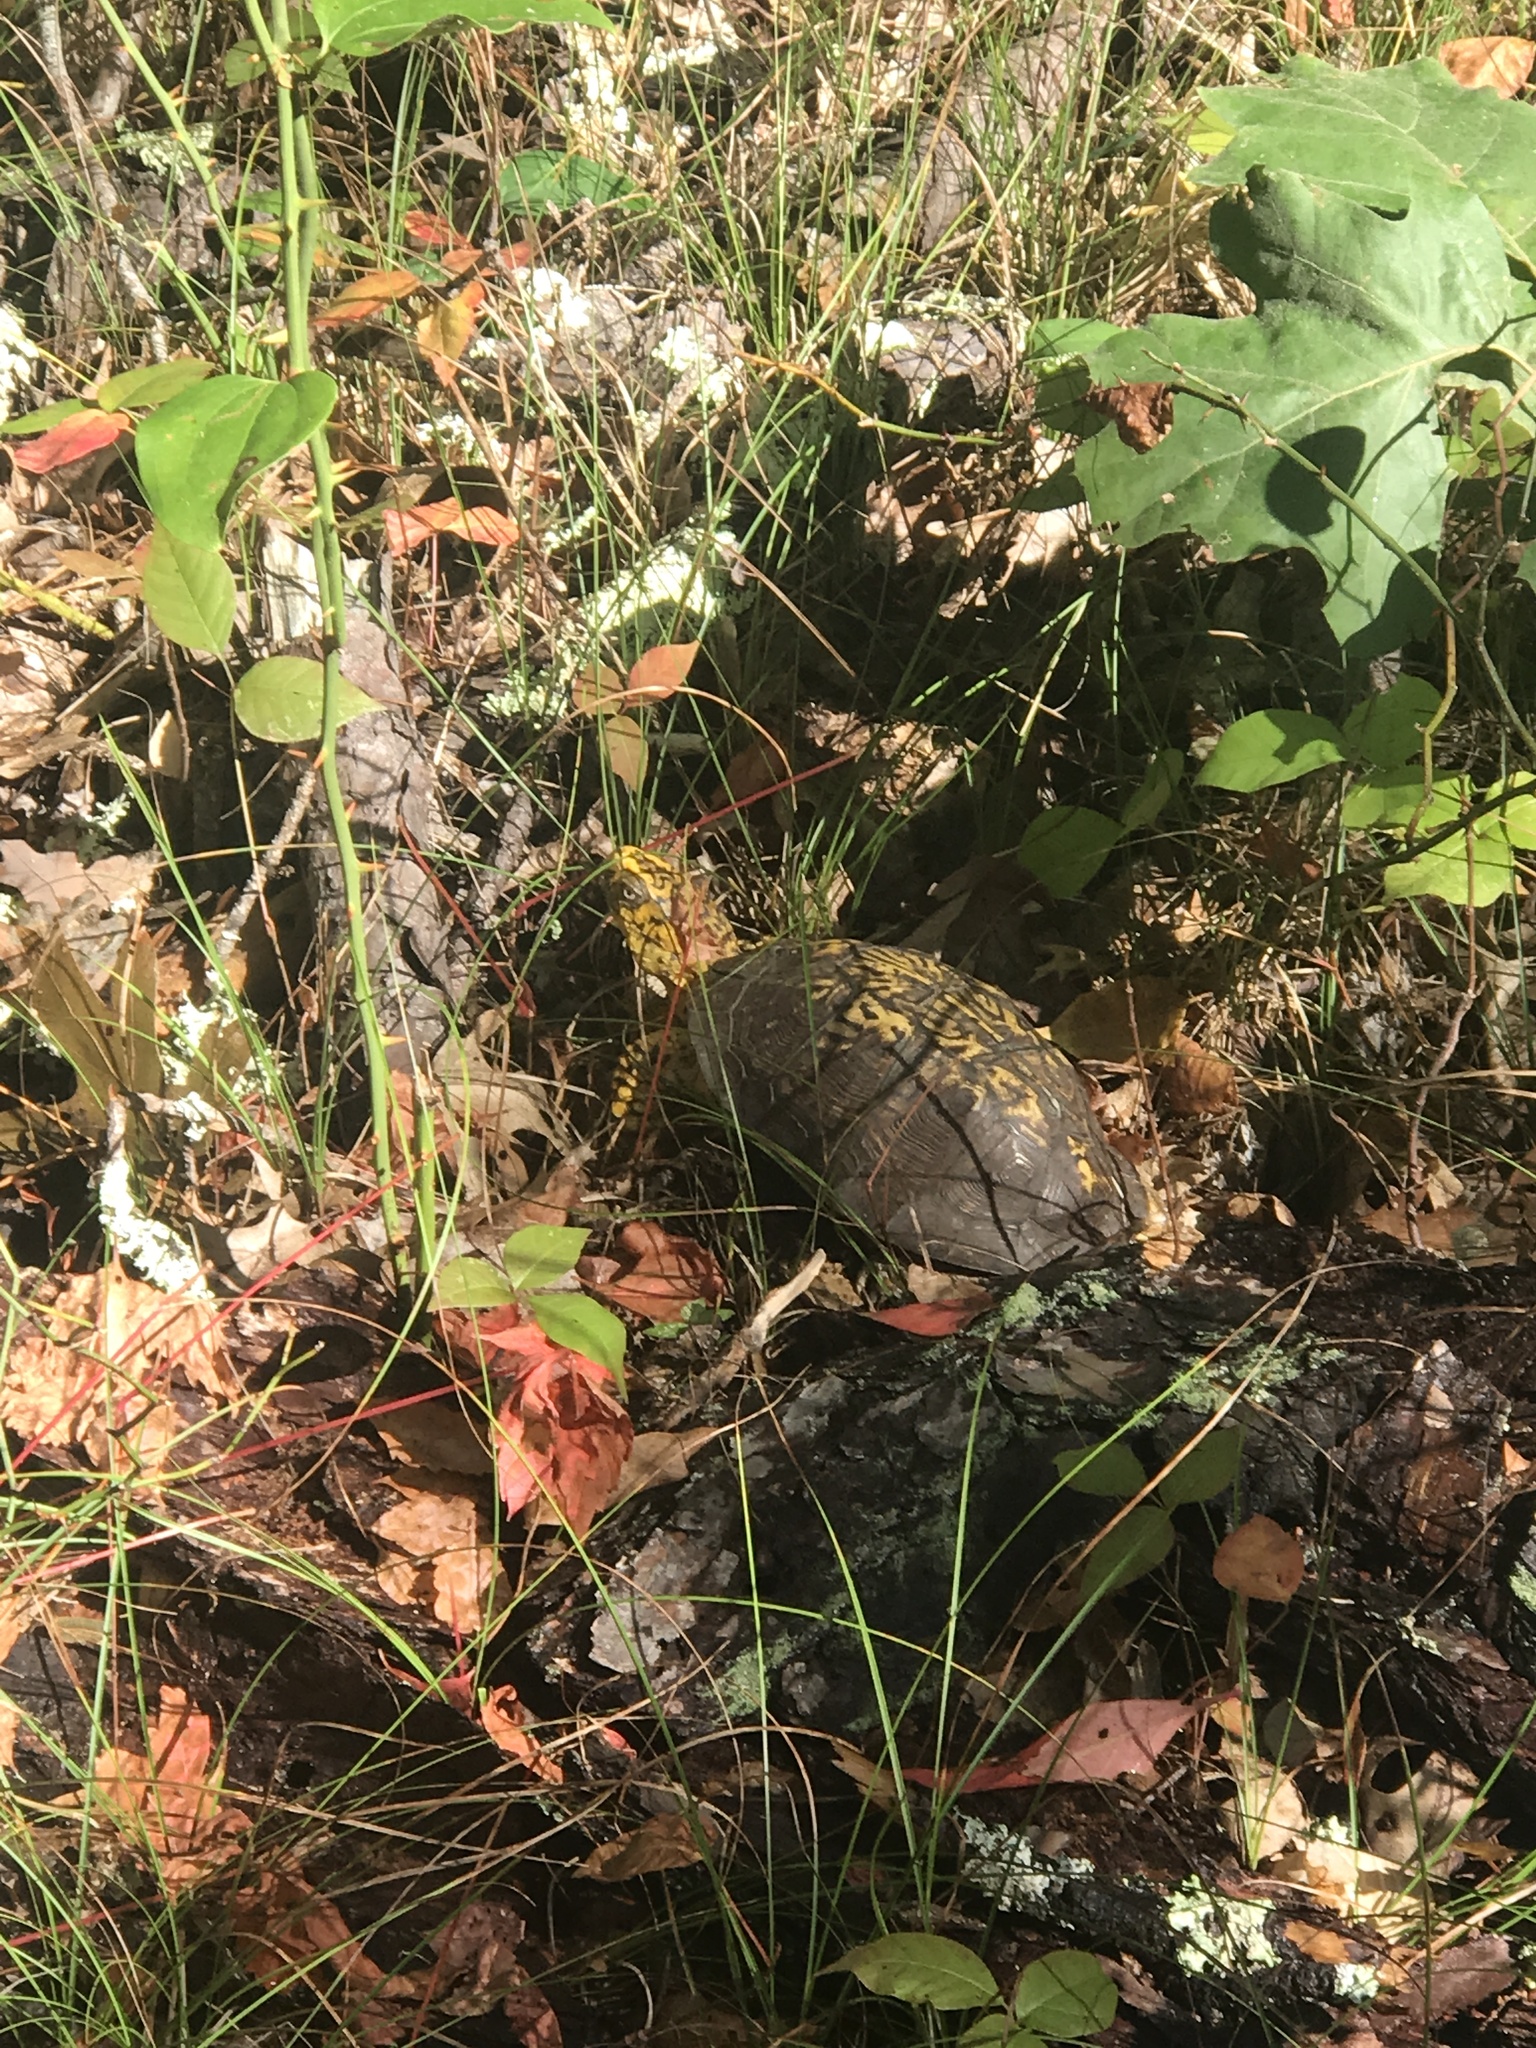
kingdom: Animalia
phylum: Chordata
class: Testudines
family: Emydidae
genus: Terrapene
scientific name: Terrapene carolina
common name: Common box turtle
